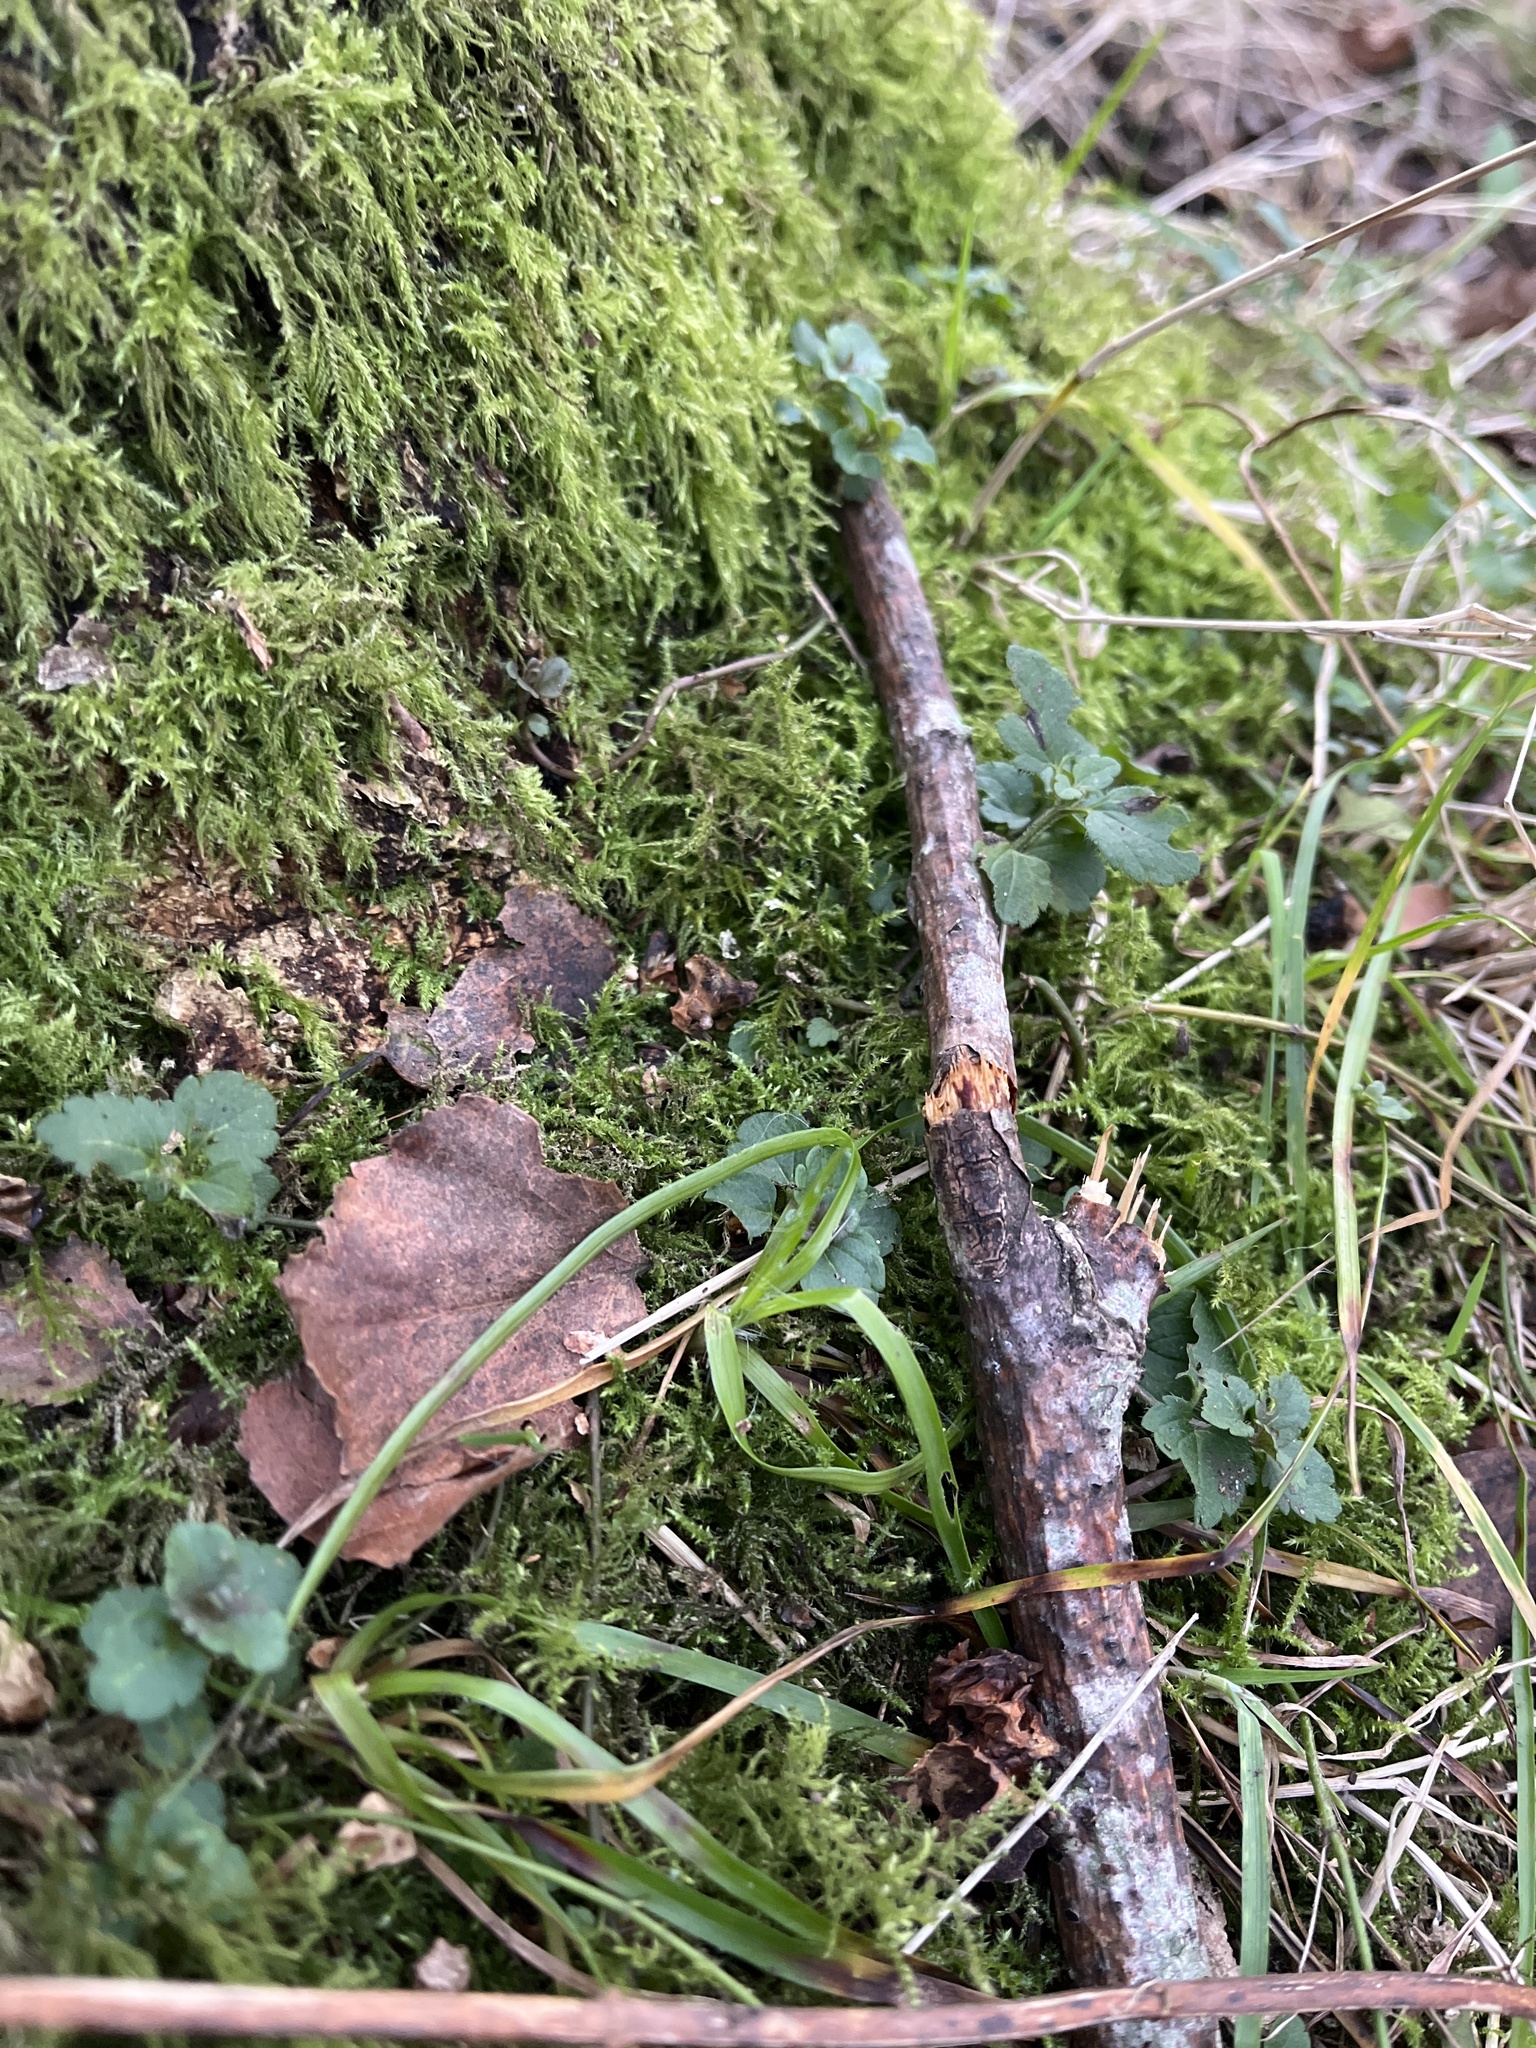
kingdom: Plantae
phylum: Tracheophyta
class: Magnoliopsida
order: Lamiales
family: Plantaginaceae
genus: Veronica
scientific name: Veronica chamaedrys
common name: Germander speedwell
